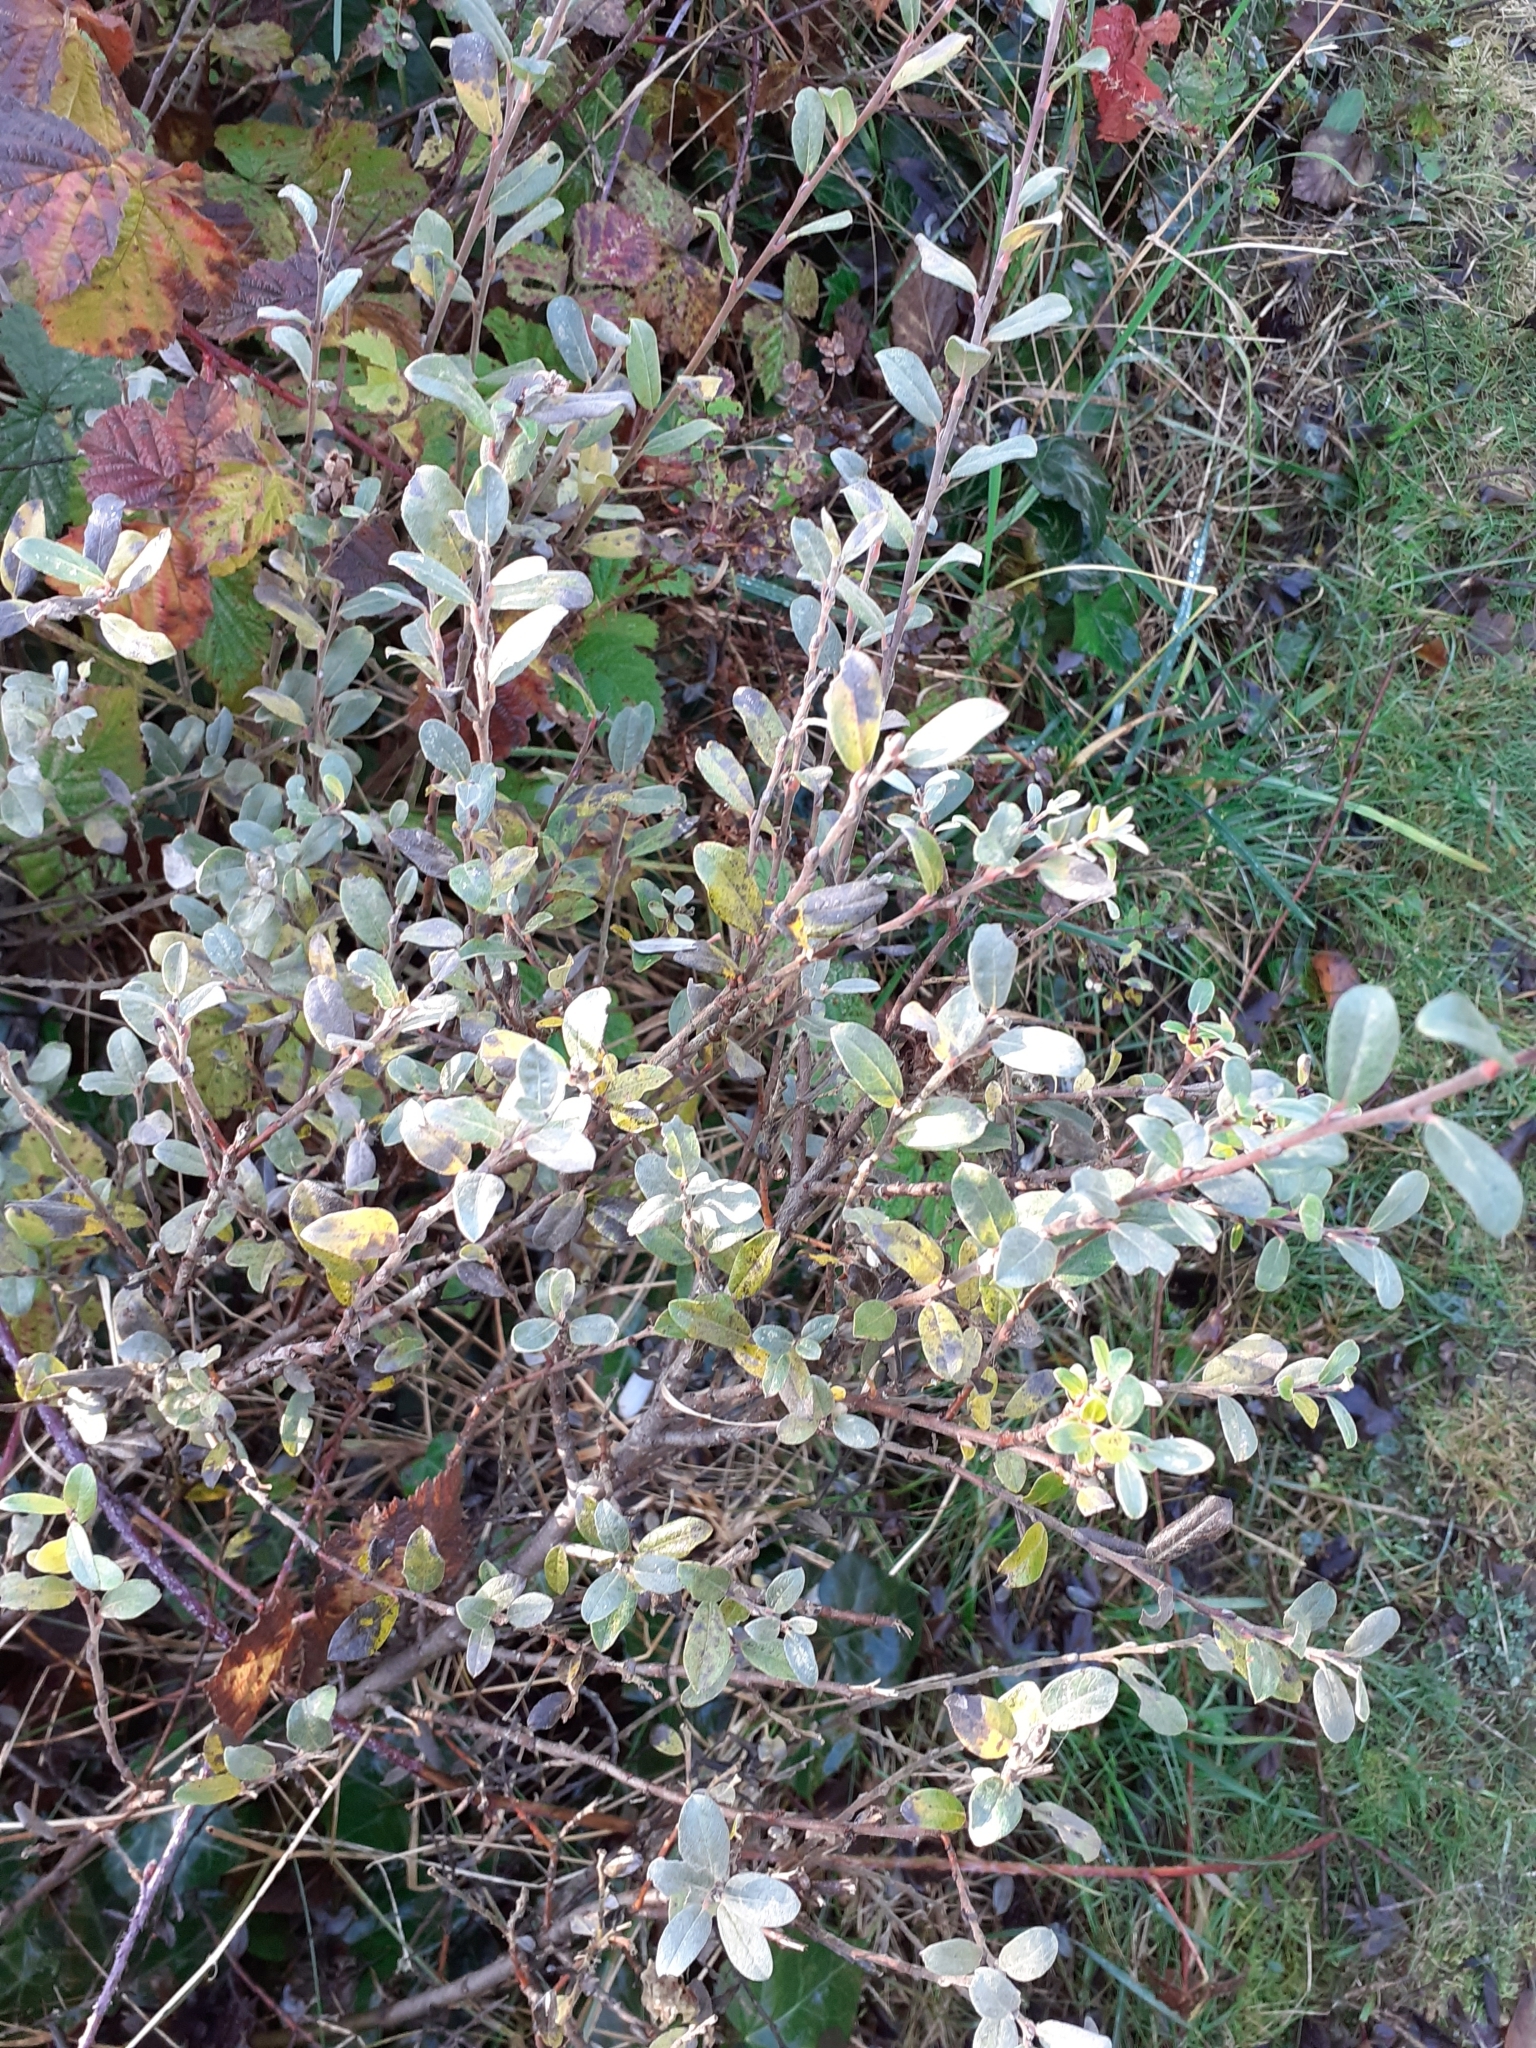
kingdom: Plantae
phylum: Tracheophyta
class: Magnoliopsida
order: Malpighiales
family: Salicaceae
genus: Salix
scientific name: Salix repens
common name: Creeping willow
